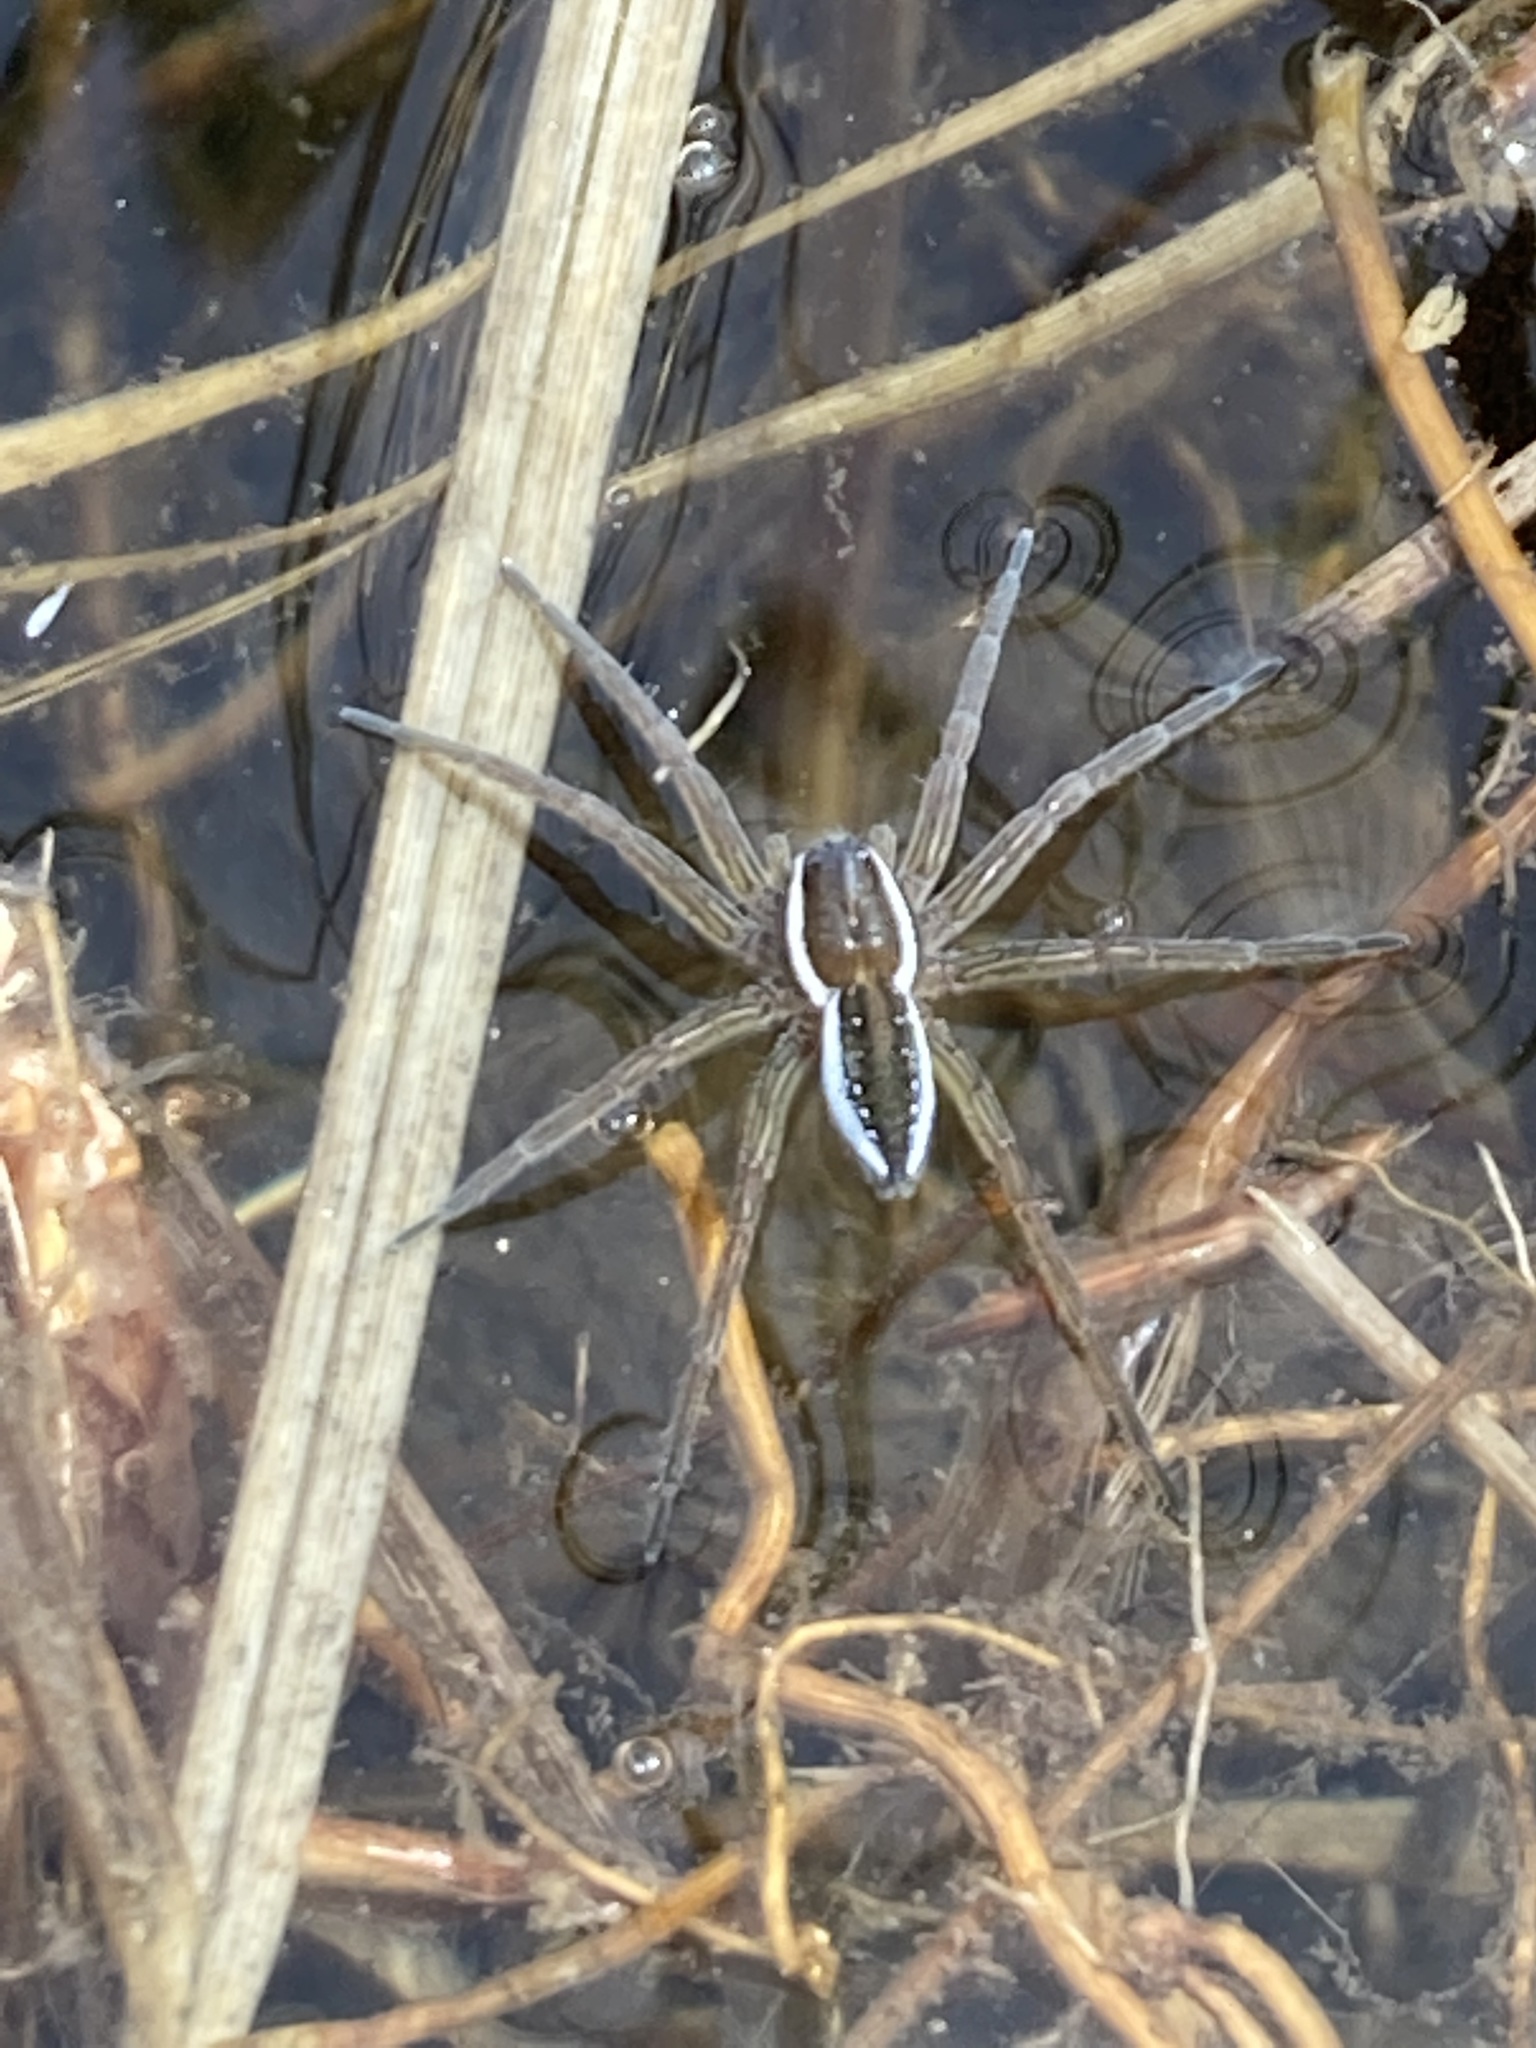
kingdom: Animalia
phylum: Arthropoda
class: Arachnida
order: Araneae
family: Pisauridae
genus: Dolomedes
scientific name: Dolomedes triton
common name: Six-spotted fishing spider
